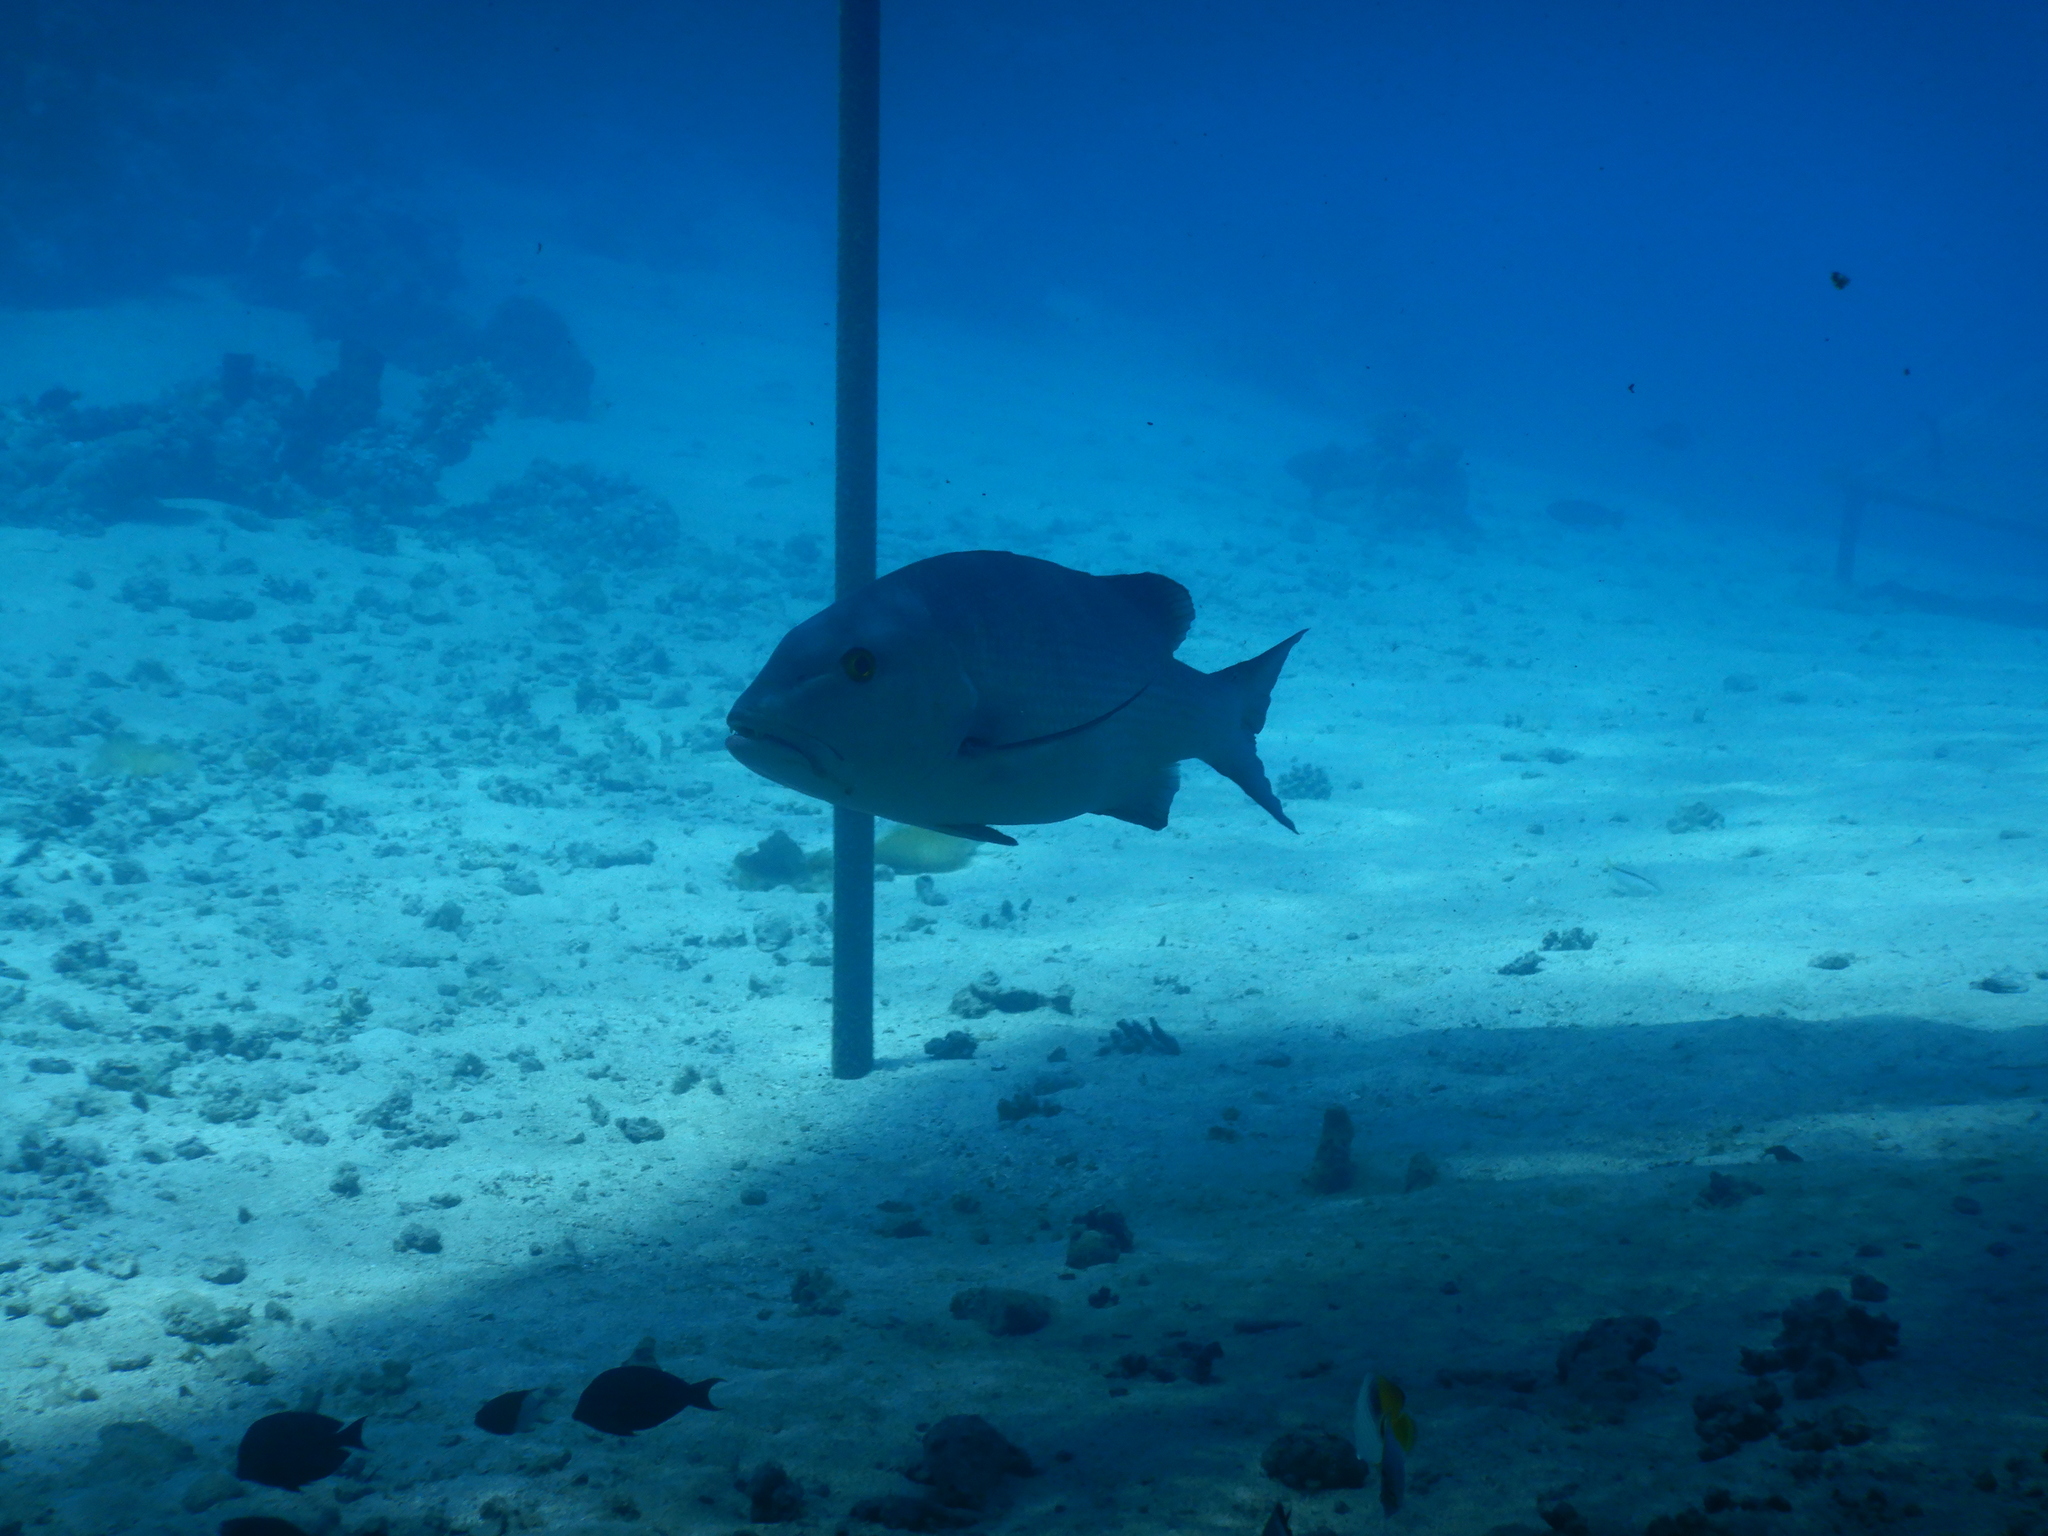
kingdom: Animalia
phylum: Chordata
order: Perciformes
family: Lutjanidae
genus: Lutjanus
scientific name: Lutjanus bohar
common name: Red bass
